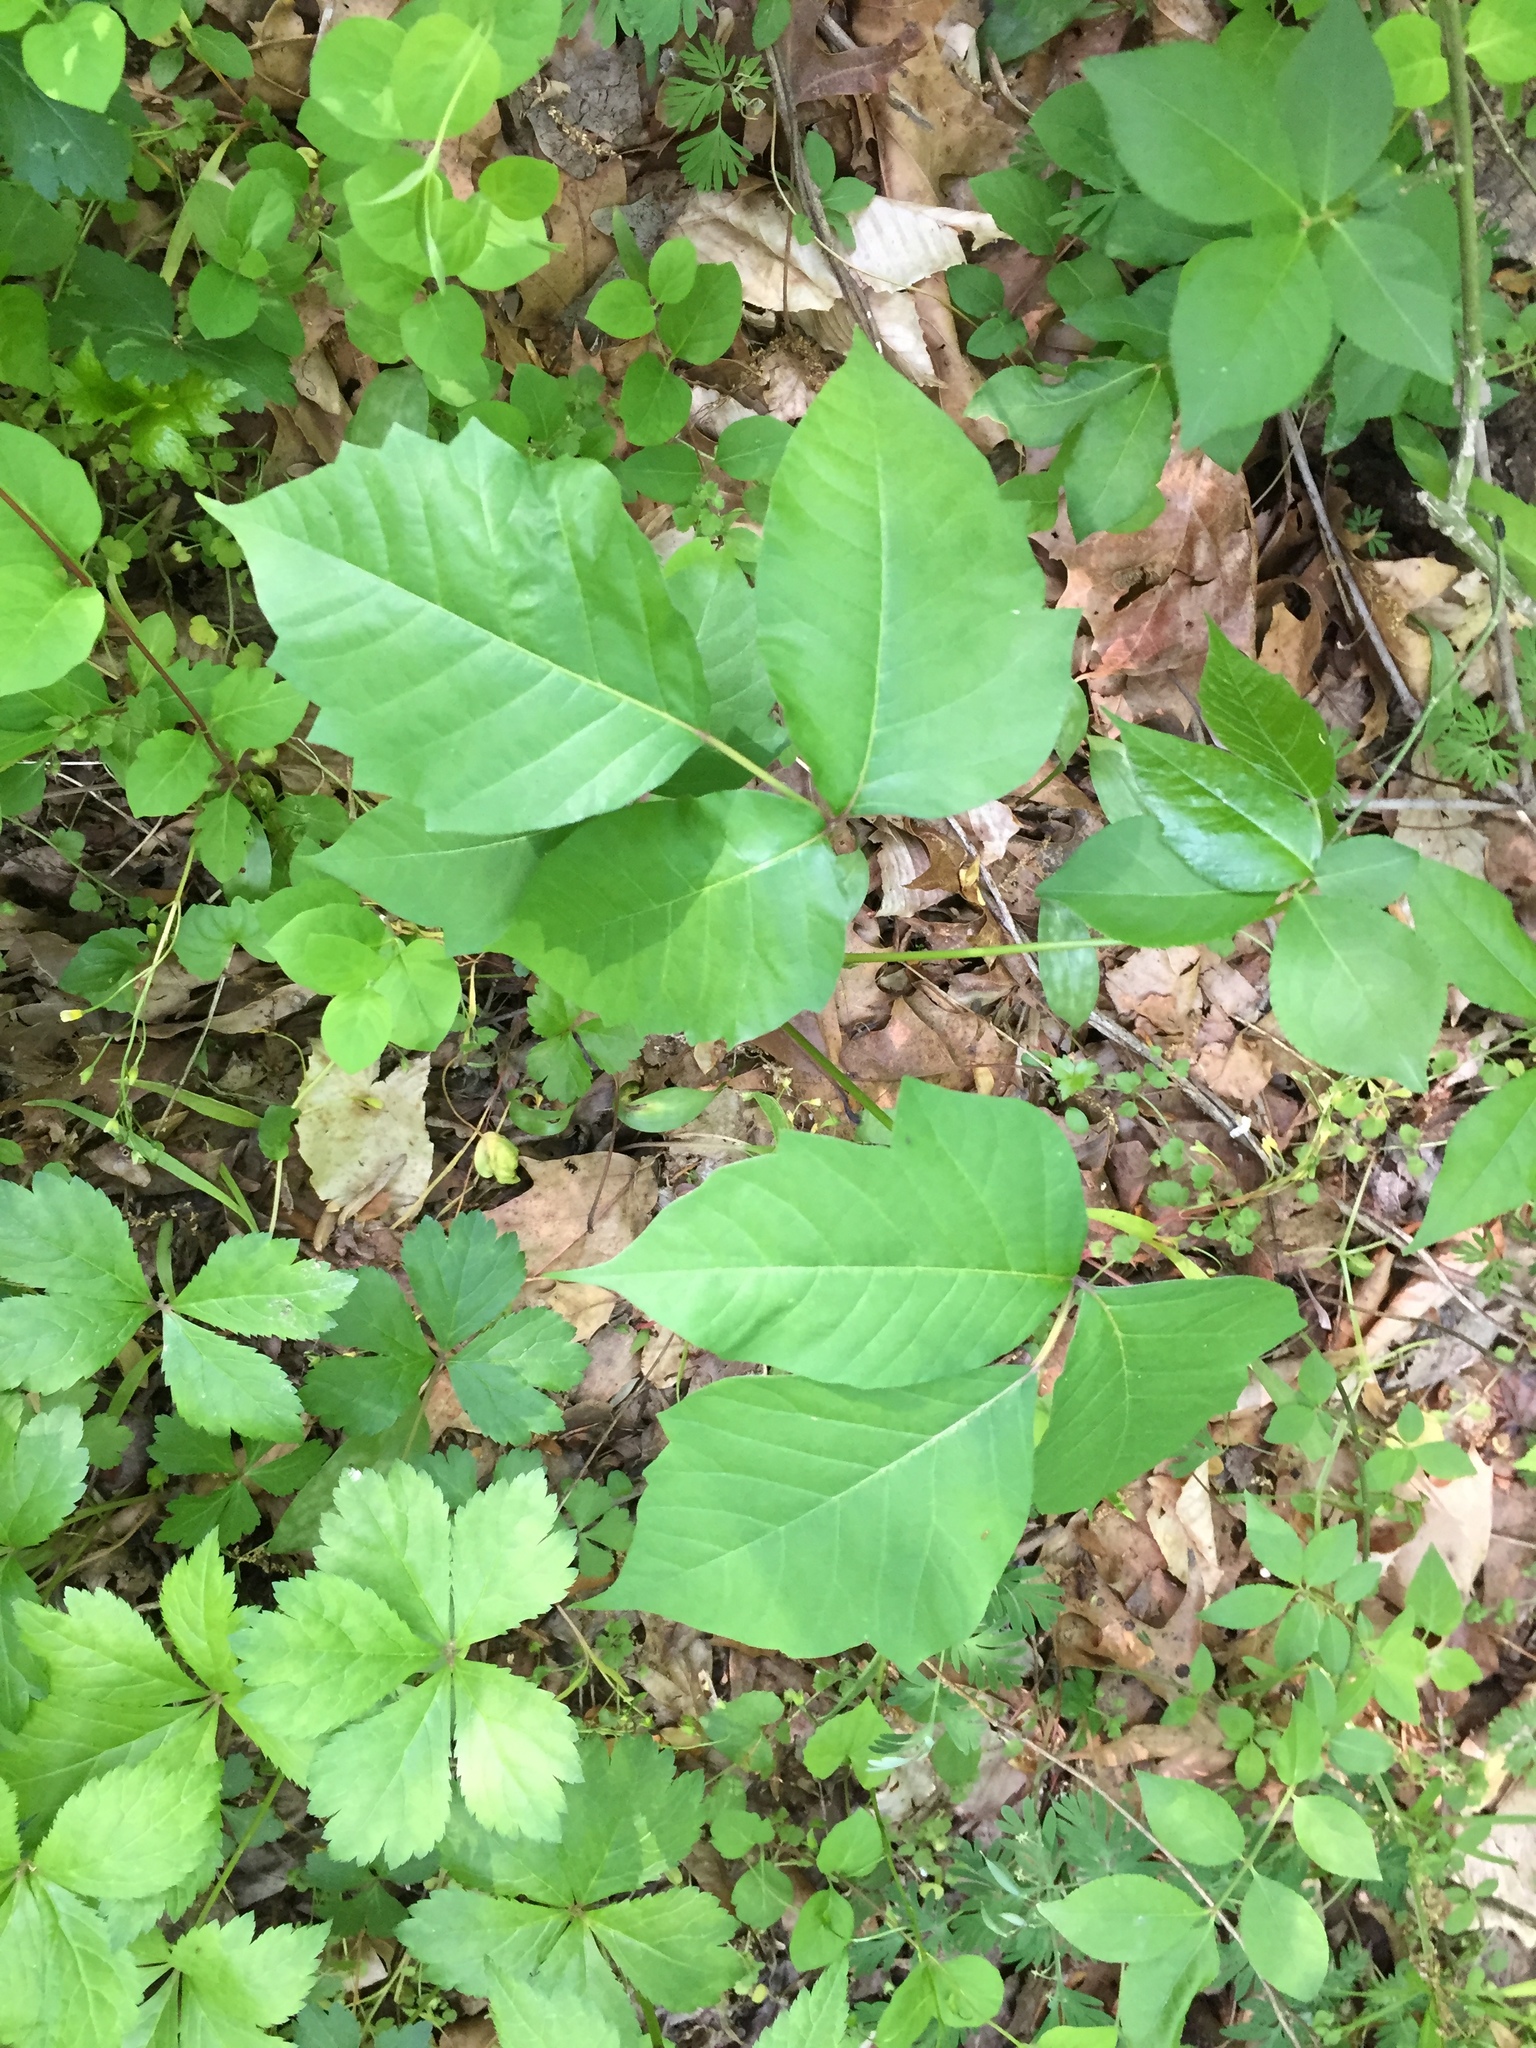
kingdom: Plantae
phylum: Tracheophyta
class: Magnoliopsida
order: Sapindales
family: Anacardiaceae
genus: Toxicodendron
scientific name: Toxicodendron radicans
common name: Poison ivy
